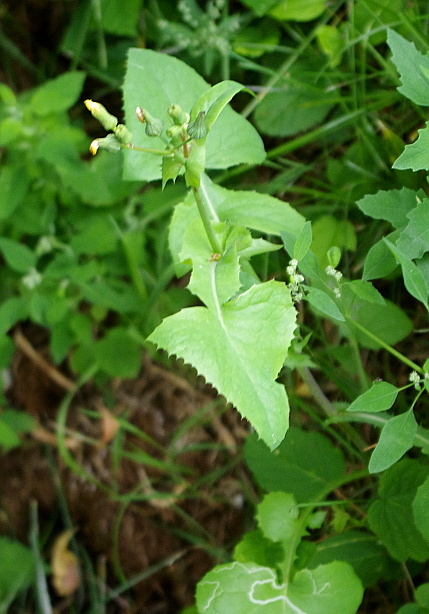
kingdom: Plantae
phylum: Tracheophyta
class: Magnoliopsida
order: Asterales
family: Asteraceae
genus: Sonchus
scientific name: Sonchus oleraceus
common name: Common sowthistle
